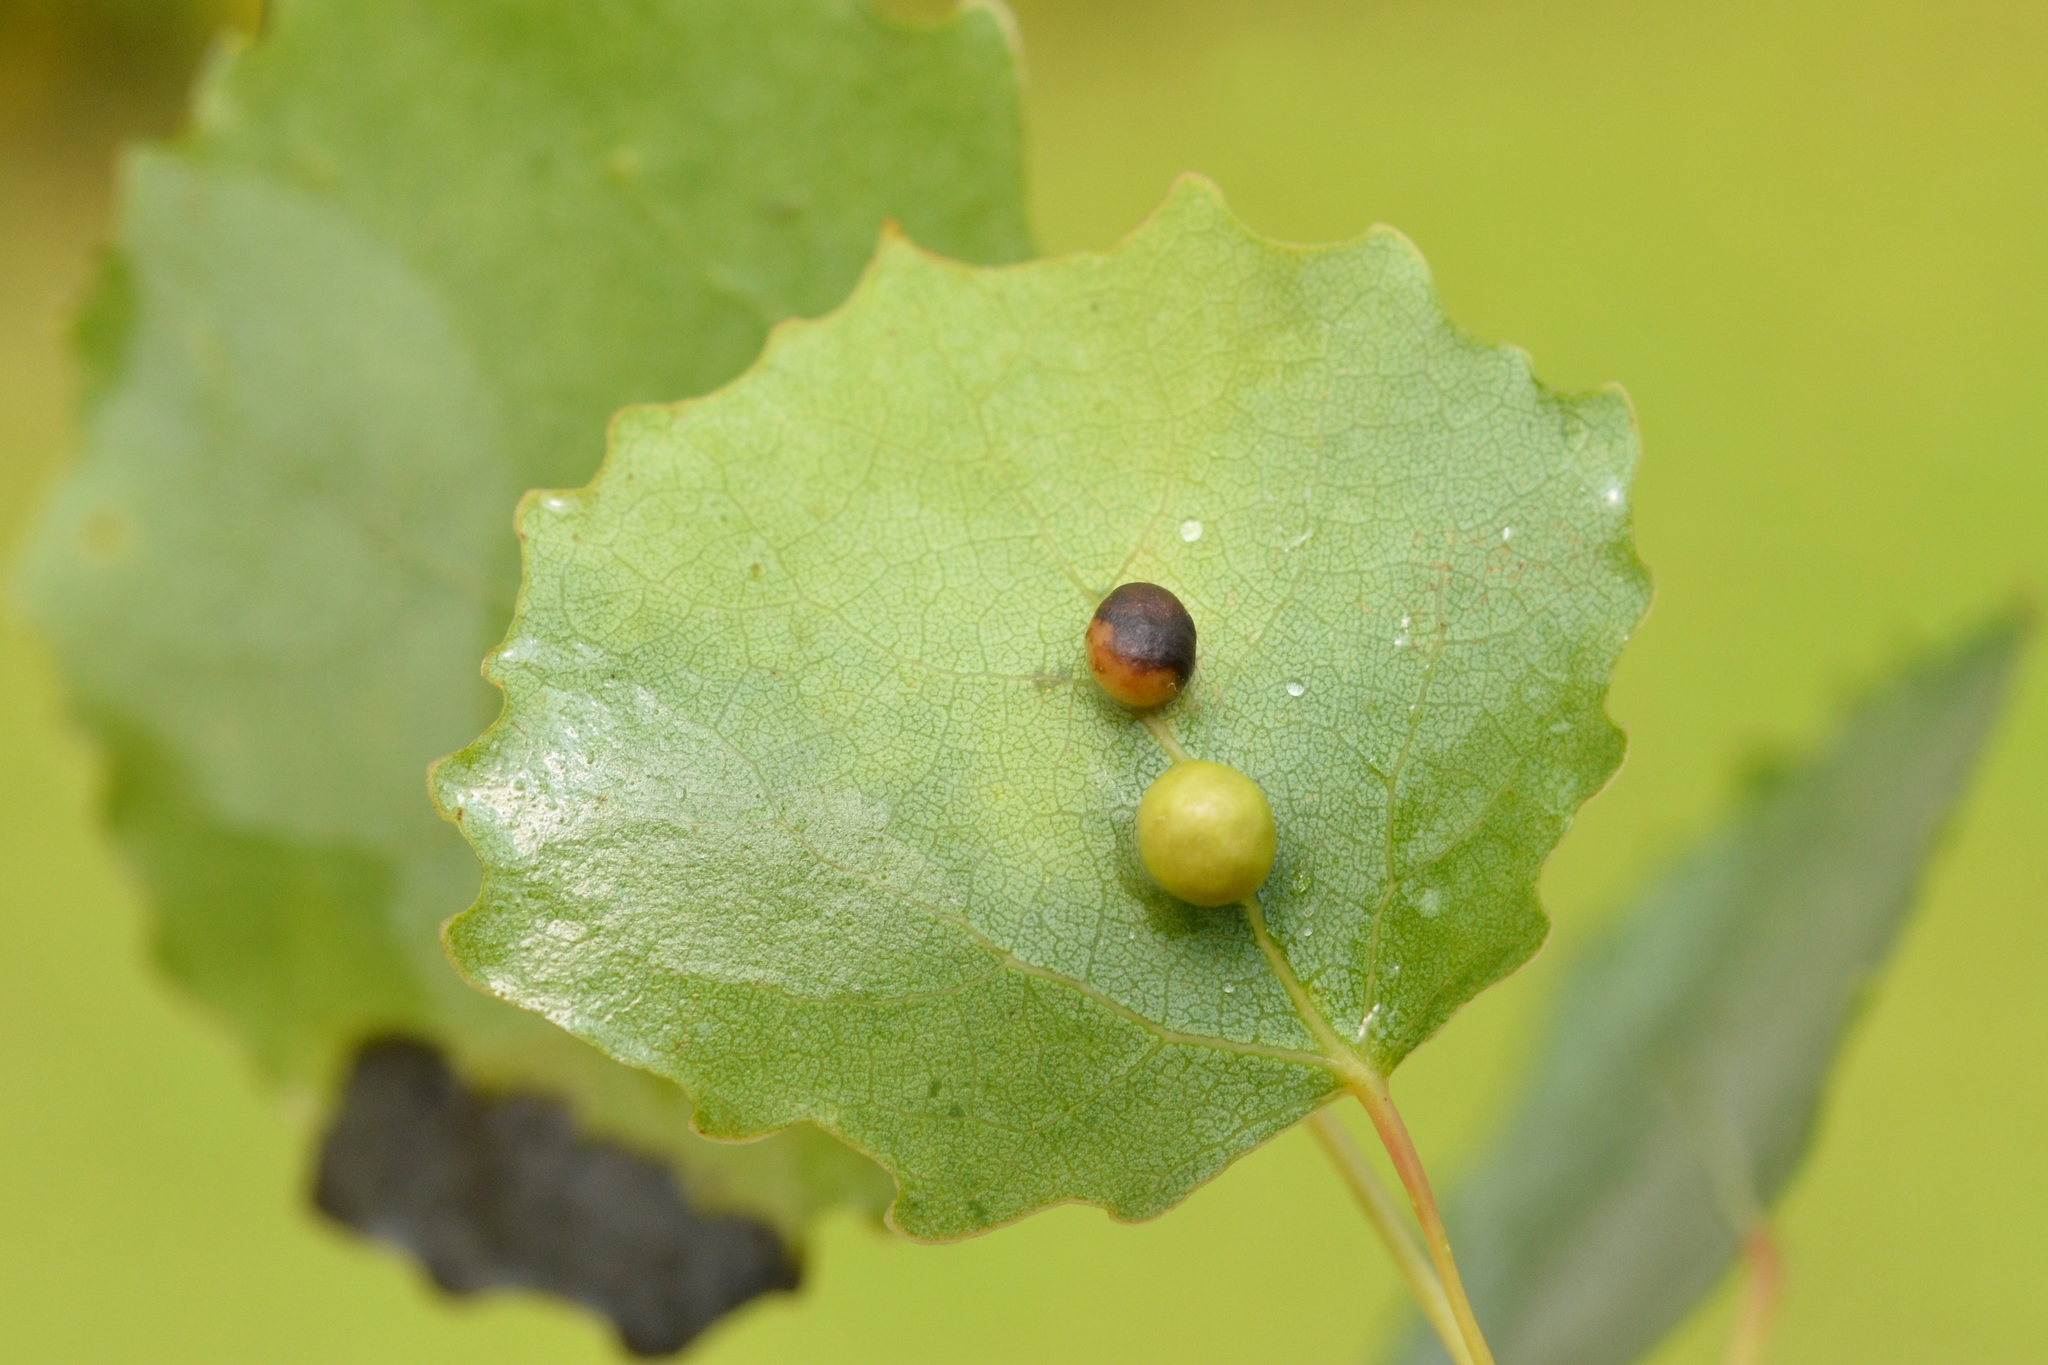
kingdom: Animalia
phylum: Arthropoda
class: Insecta
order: Diptera
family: Cecidomyiidae
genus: Harmandiola
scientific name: Harmandiola cavernosa
